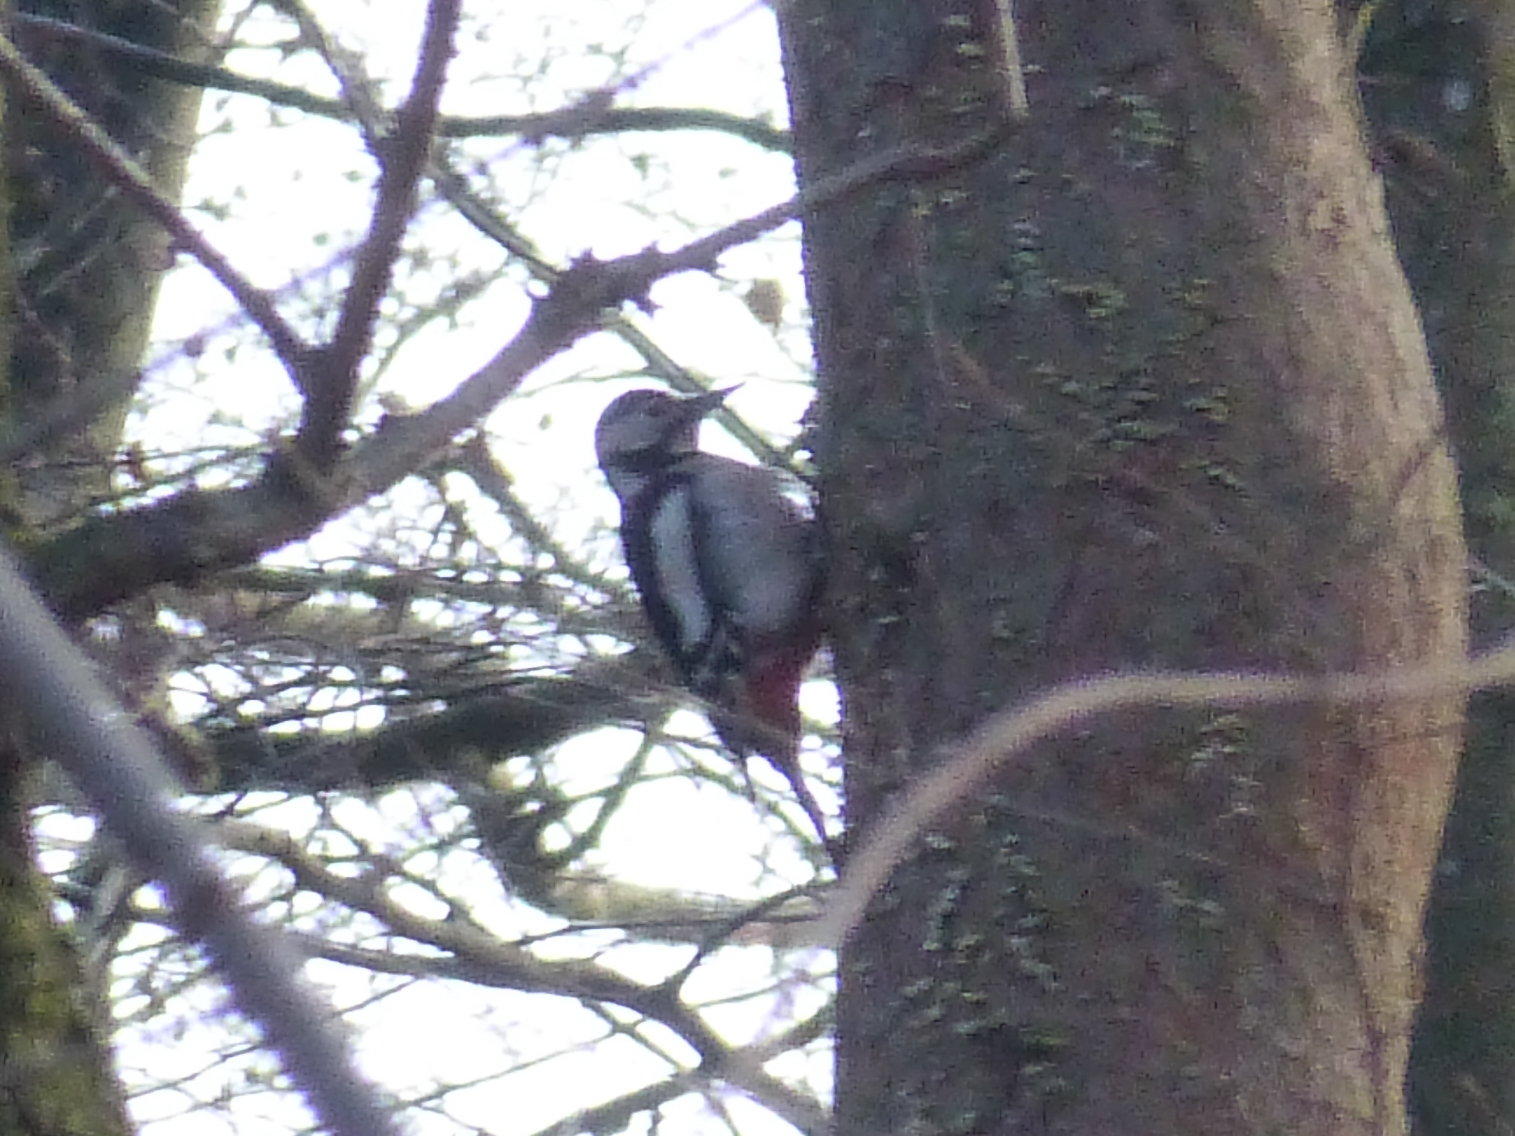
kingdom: Animalia
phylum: Chordata
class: Aves
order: Piciformes
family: Picidae
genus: Dendrocopos
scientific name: Dendrocopos major
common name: Great spotted woodpecker
